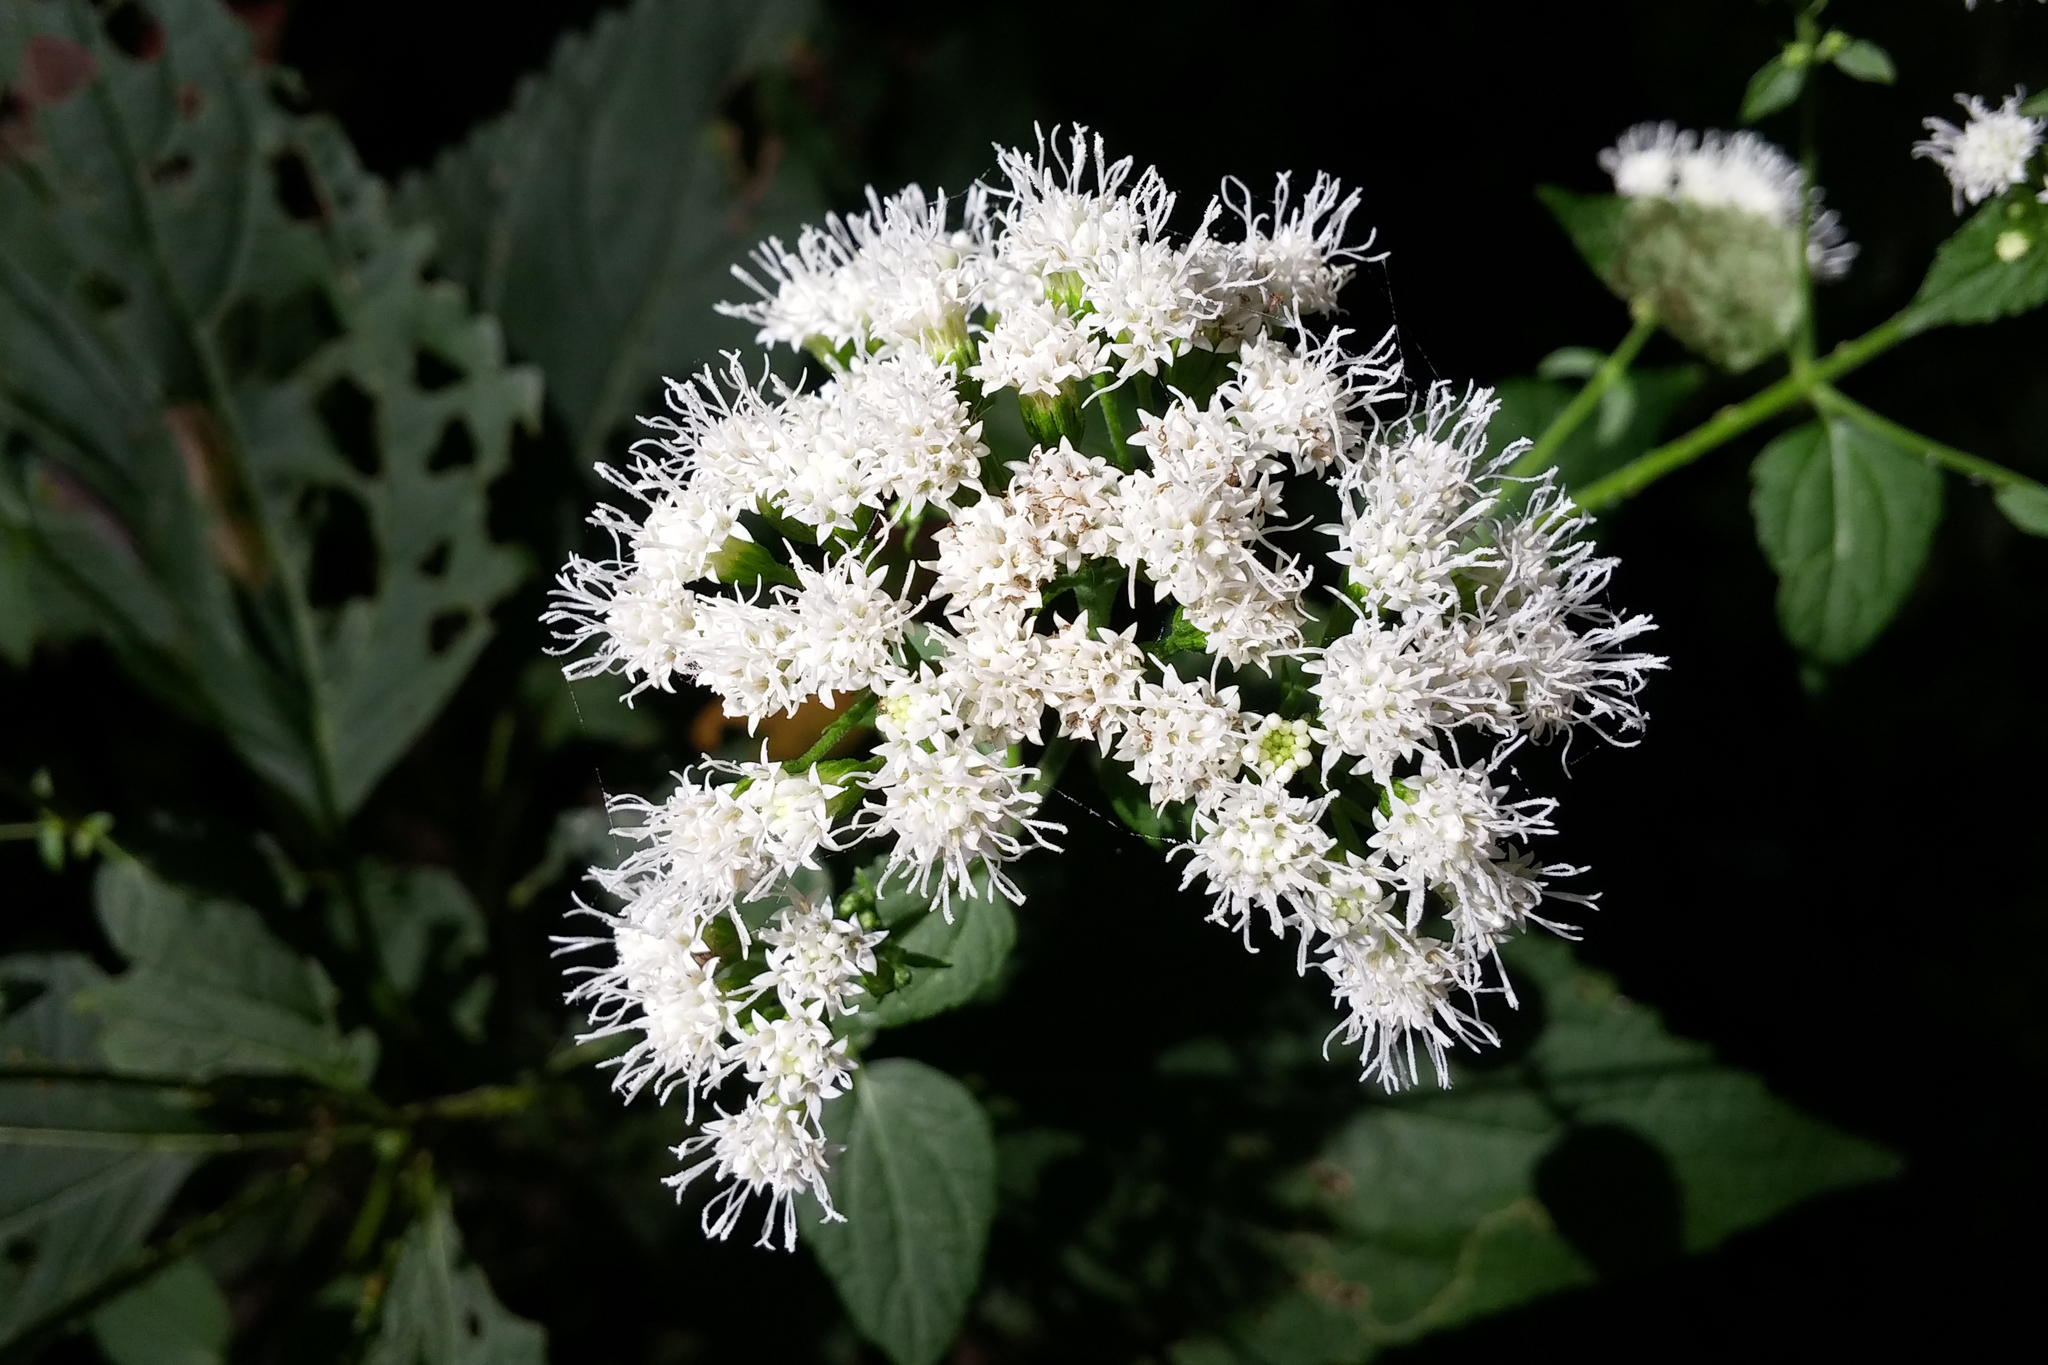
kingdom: Plantae
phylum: Tracheophyta
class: Magnoliopsida
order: Asterales
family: Asteraceae
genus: Ageratina
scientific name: Ageratina altissima
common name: White snakeroot
